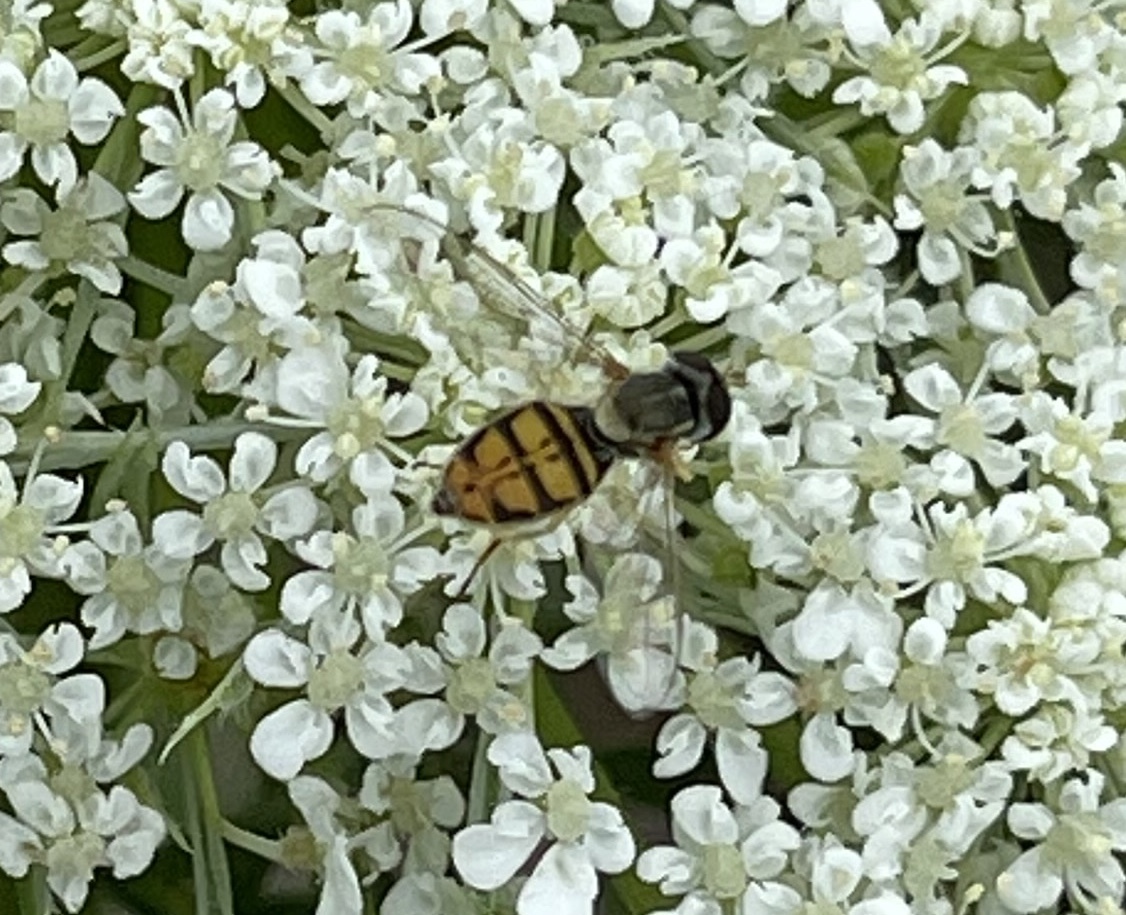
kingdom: Animalia
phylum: Arthropoda
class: Insecta
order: Diptera
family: Syrphidae
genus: Toxomerus
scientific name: Toxomerus marginatus
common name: Syrphid fly
